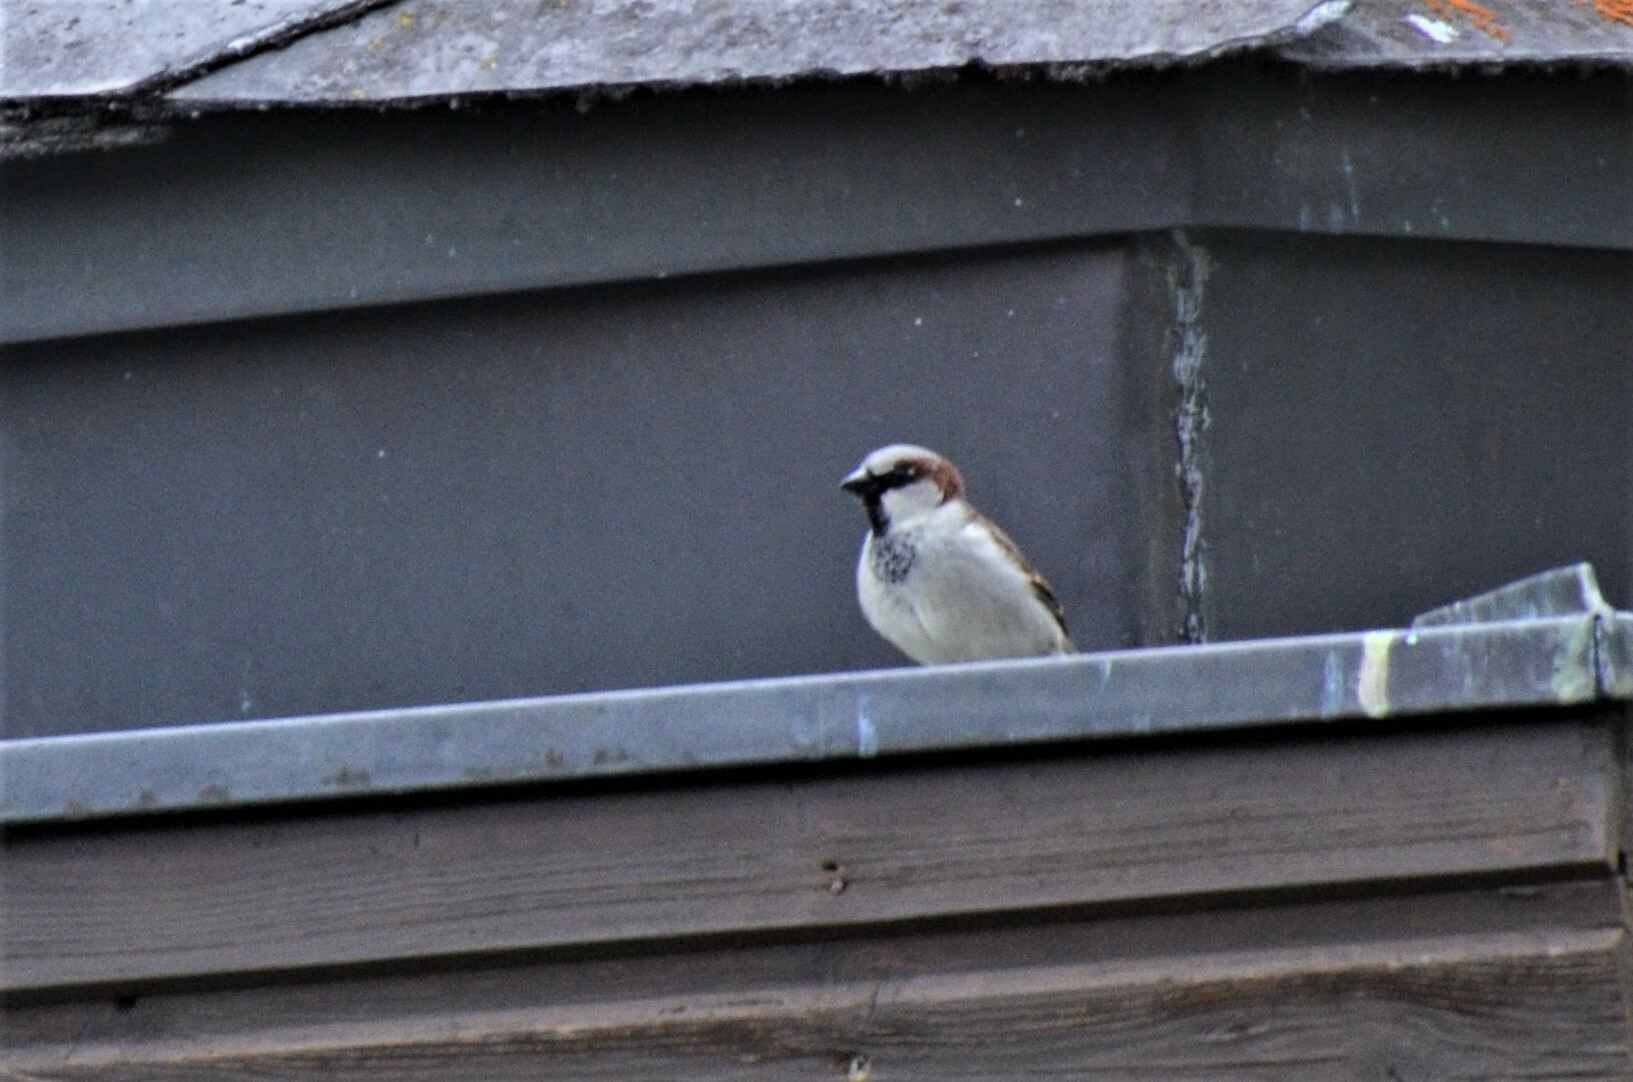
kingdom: Animalia
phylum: Chordata
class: Aves
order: Passeriformes
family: Passeridae
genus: Passer
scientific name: Passer domesticus
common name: House sparrow
